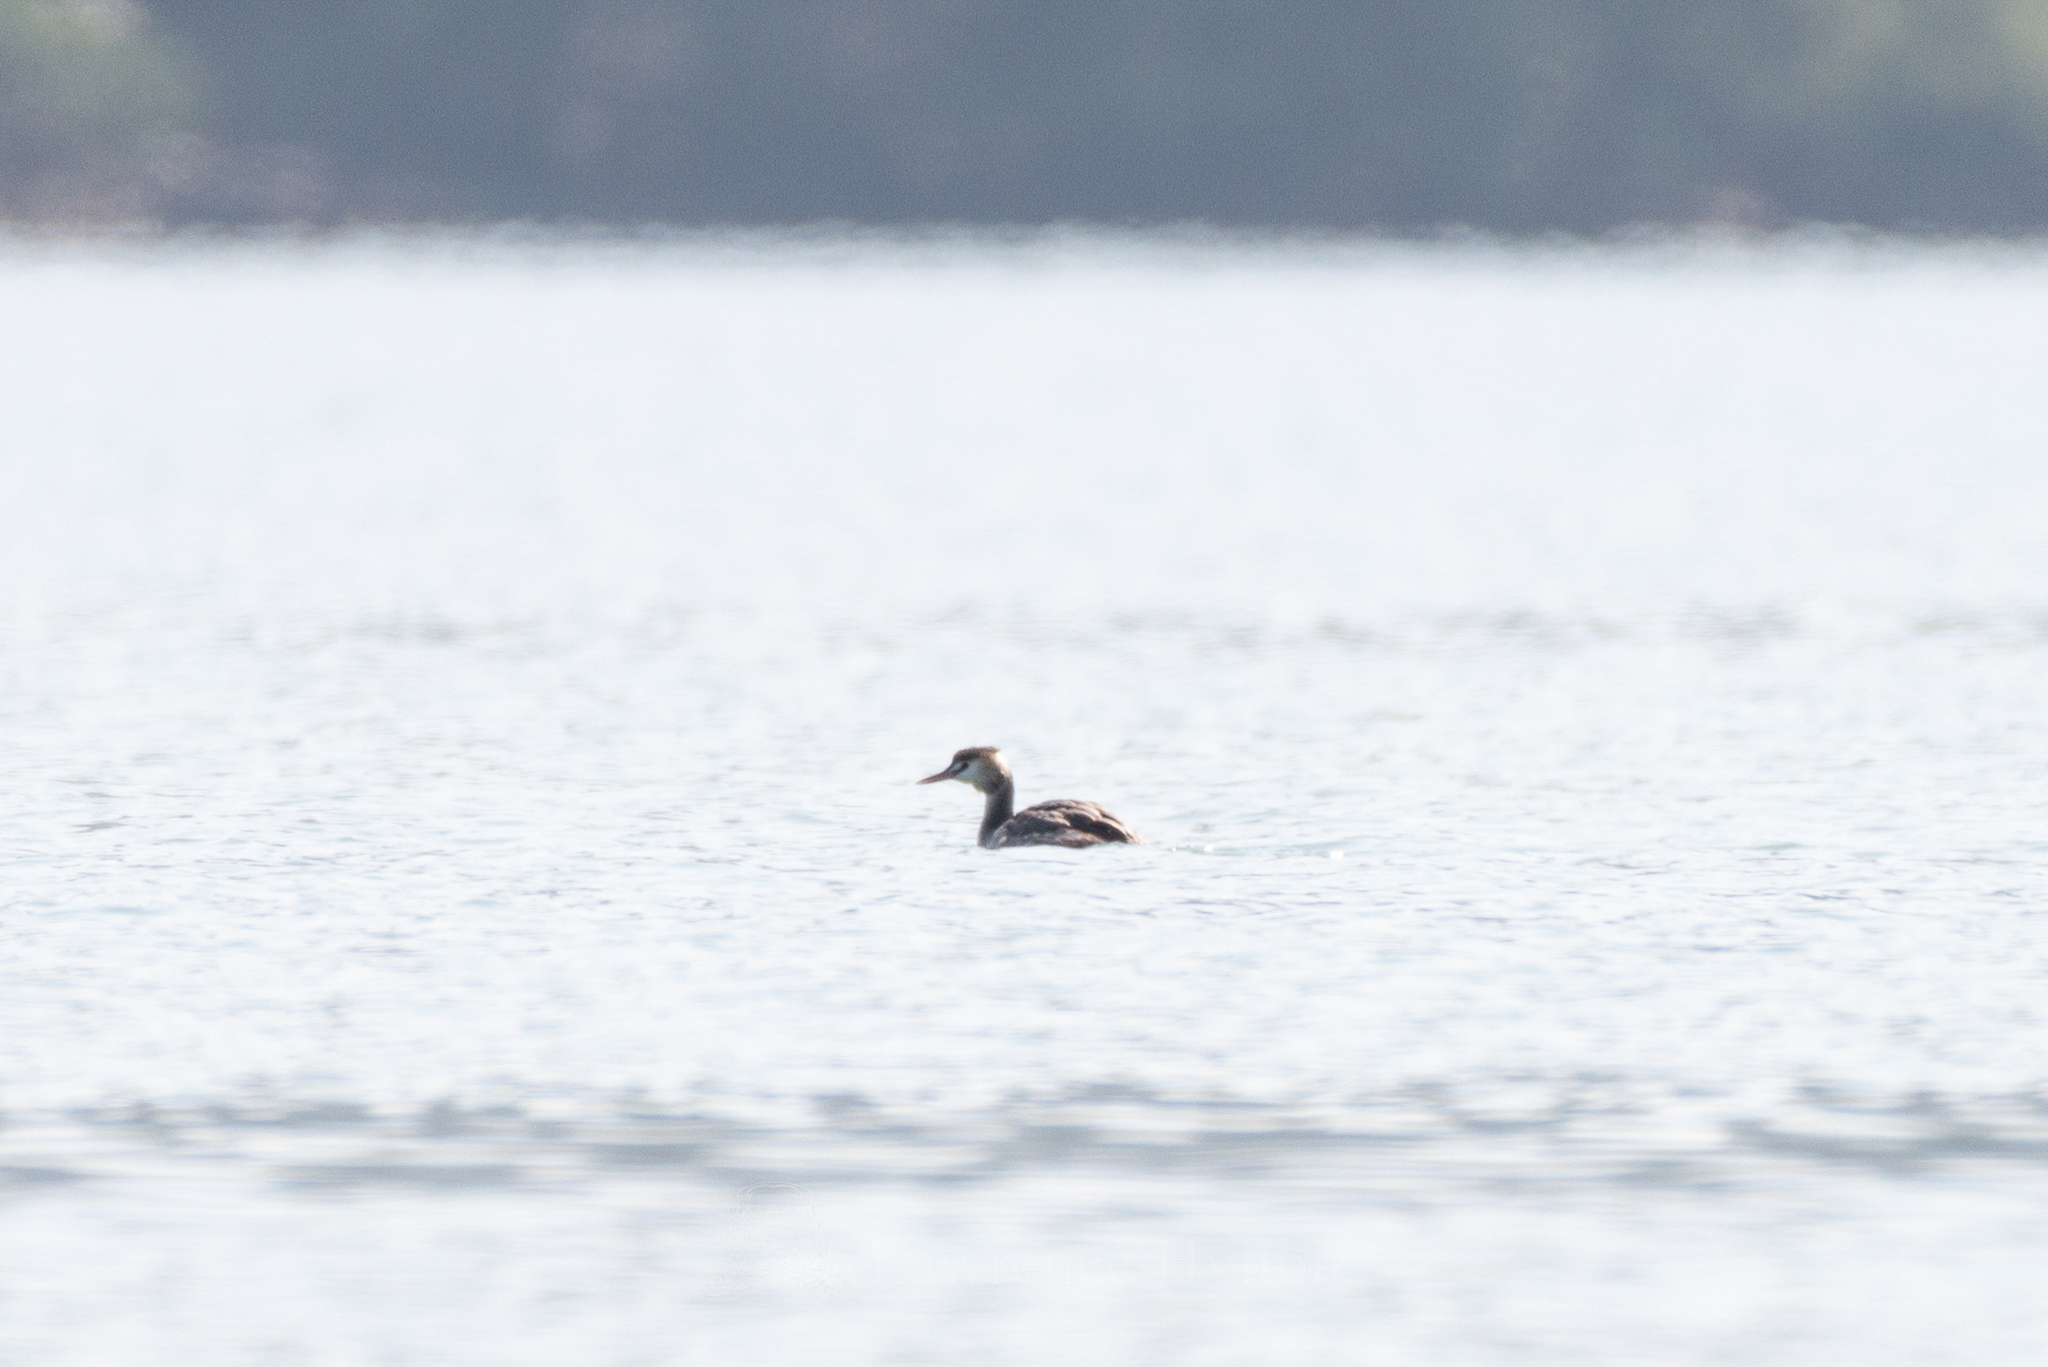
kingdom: Animalia
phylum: Chordata
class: Aves
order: Podicipediformes
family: Podicipedidae
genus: Podiceps
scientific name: Podiceps cristatus
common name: Great crested grebe
